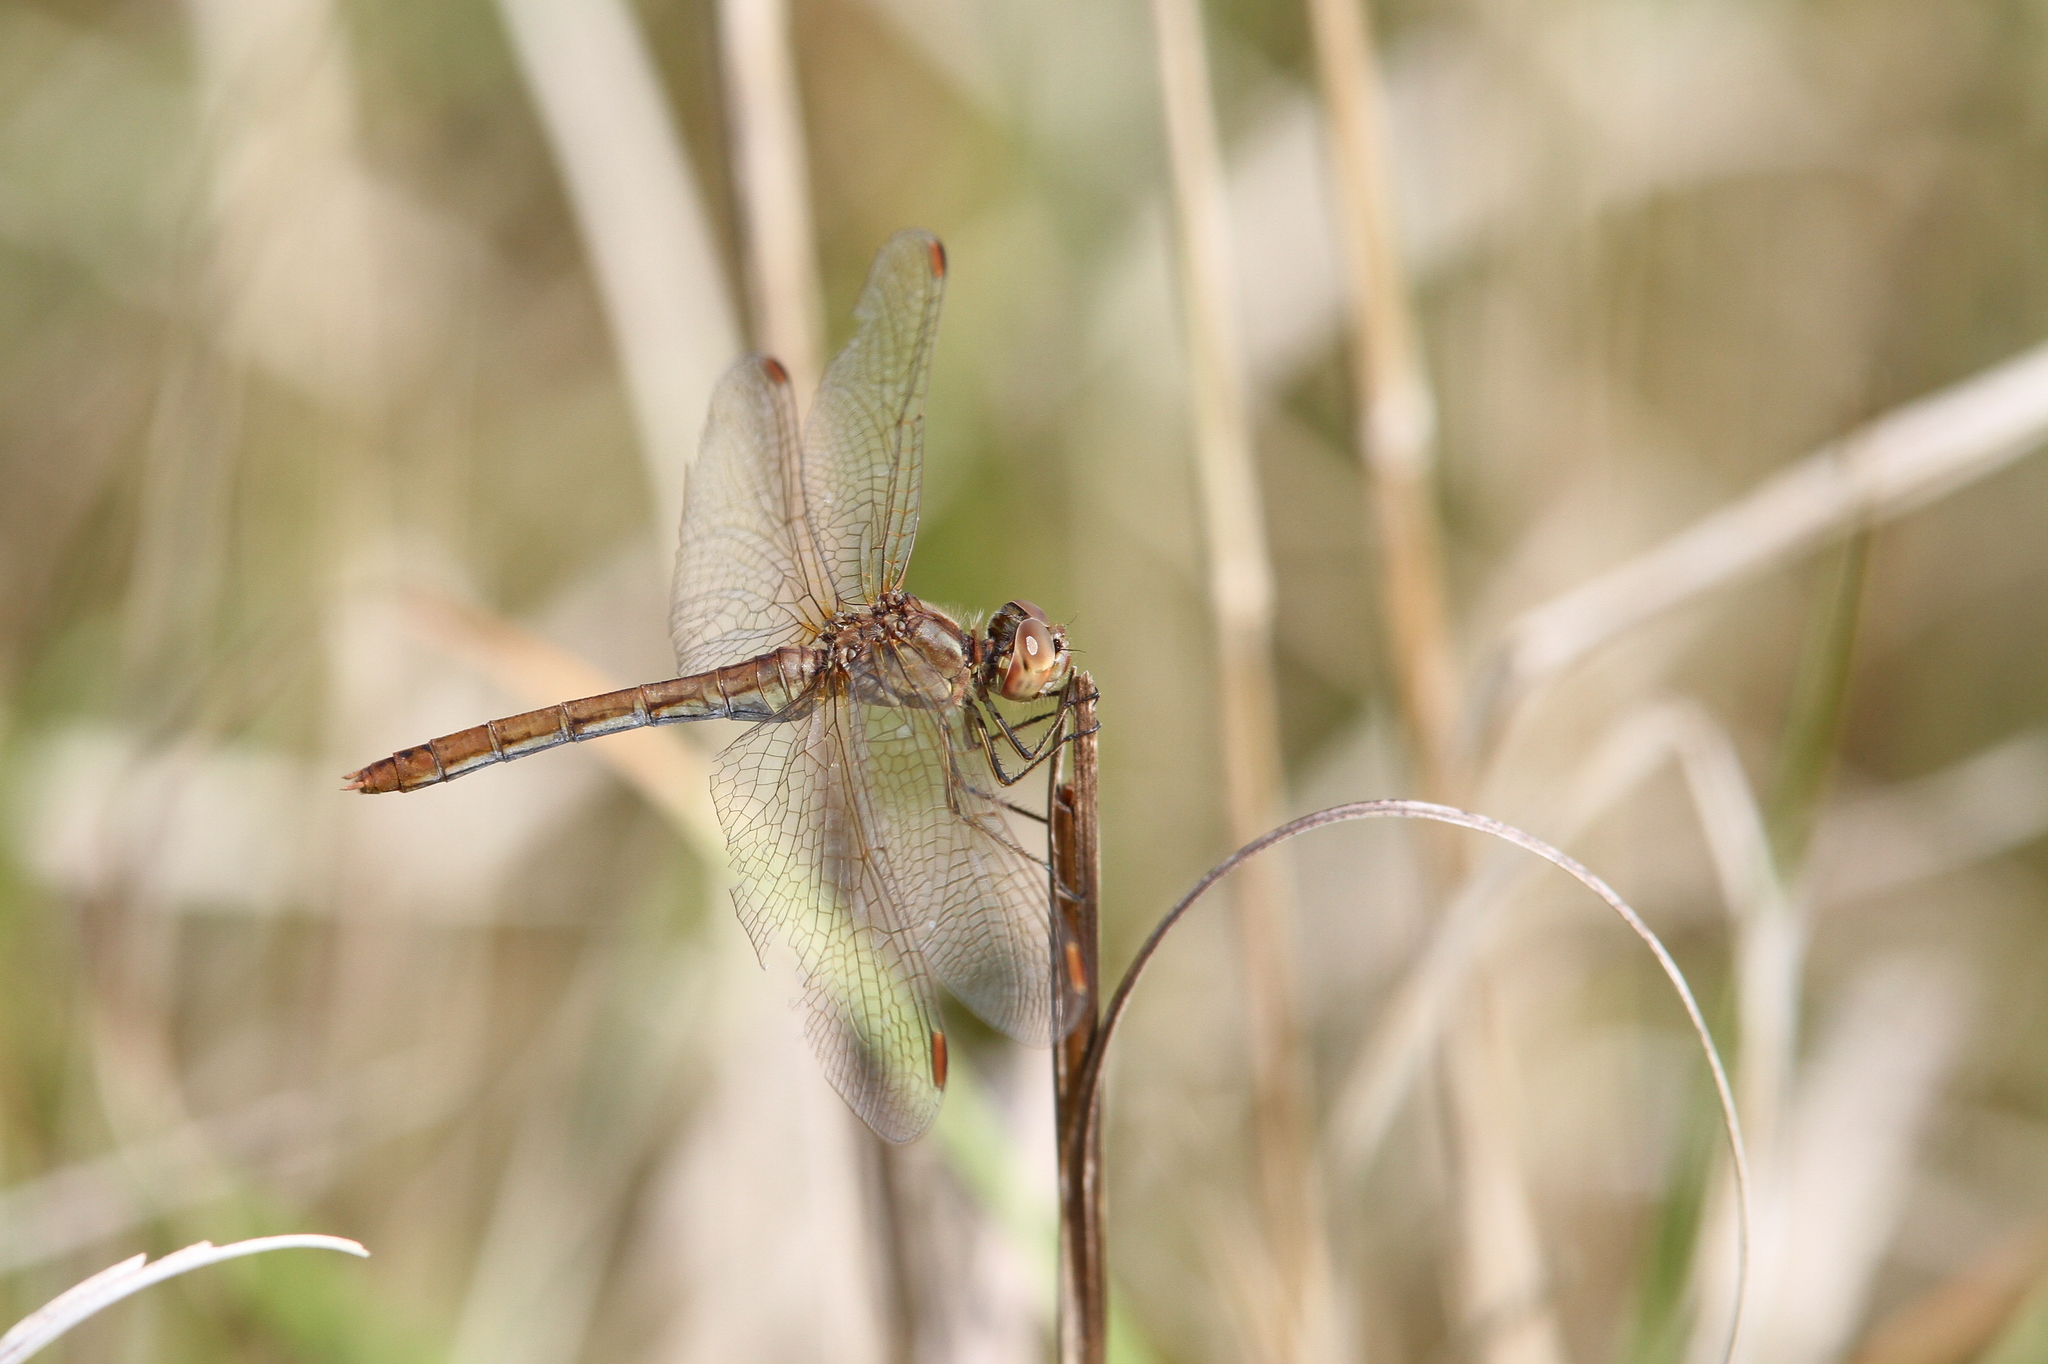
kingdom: Animalia
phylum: Arthropoda
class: Insecta
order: Odonata
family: Libellulidae
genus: Sympetrum
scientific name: Sympetrum meridionale
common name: Southern darter
